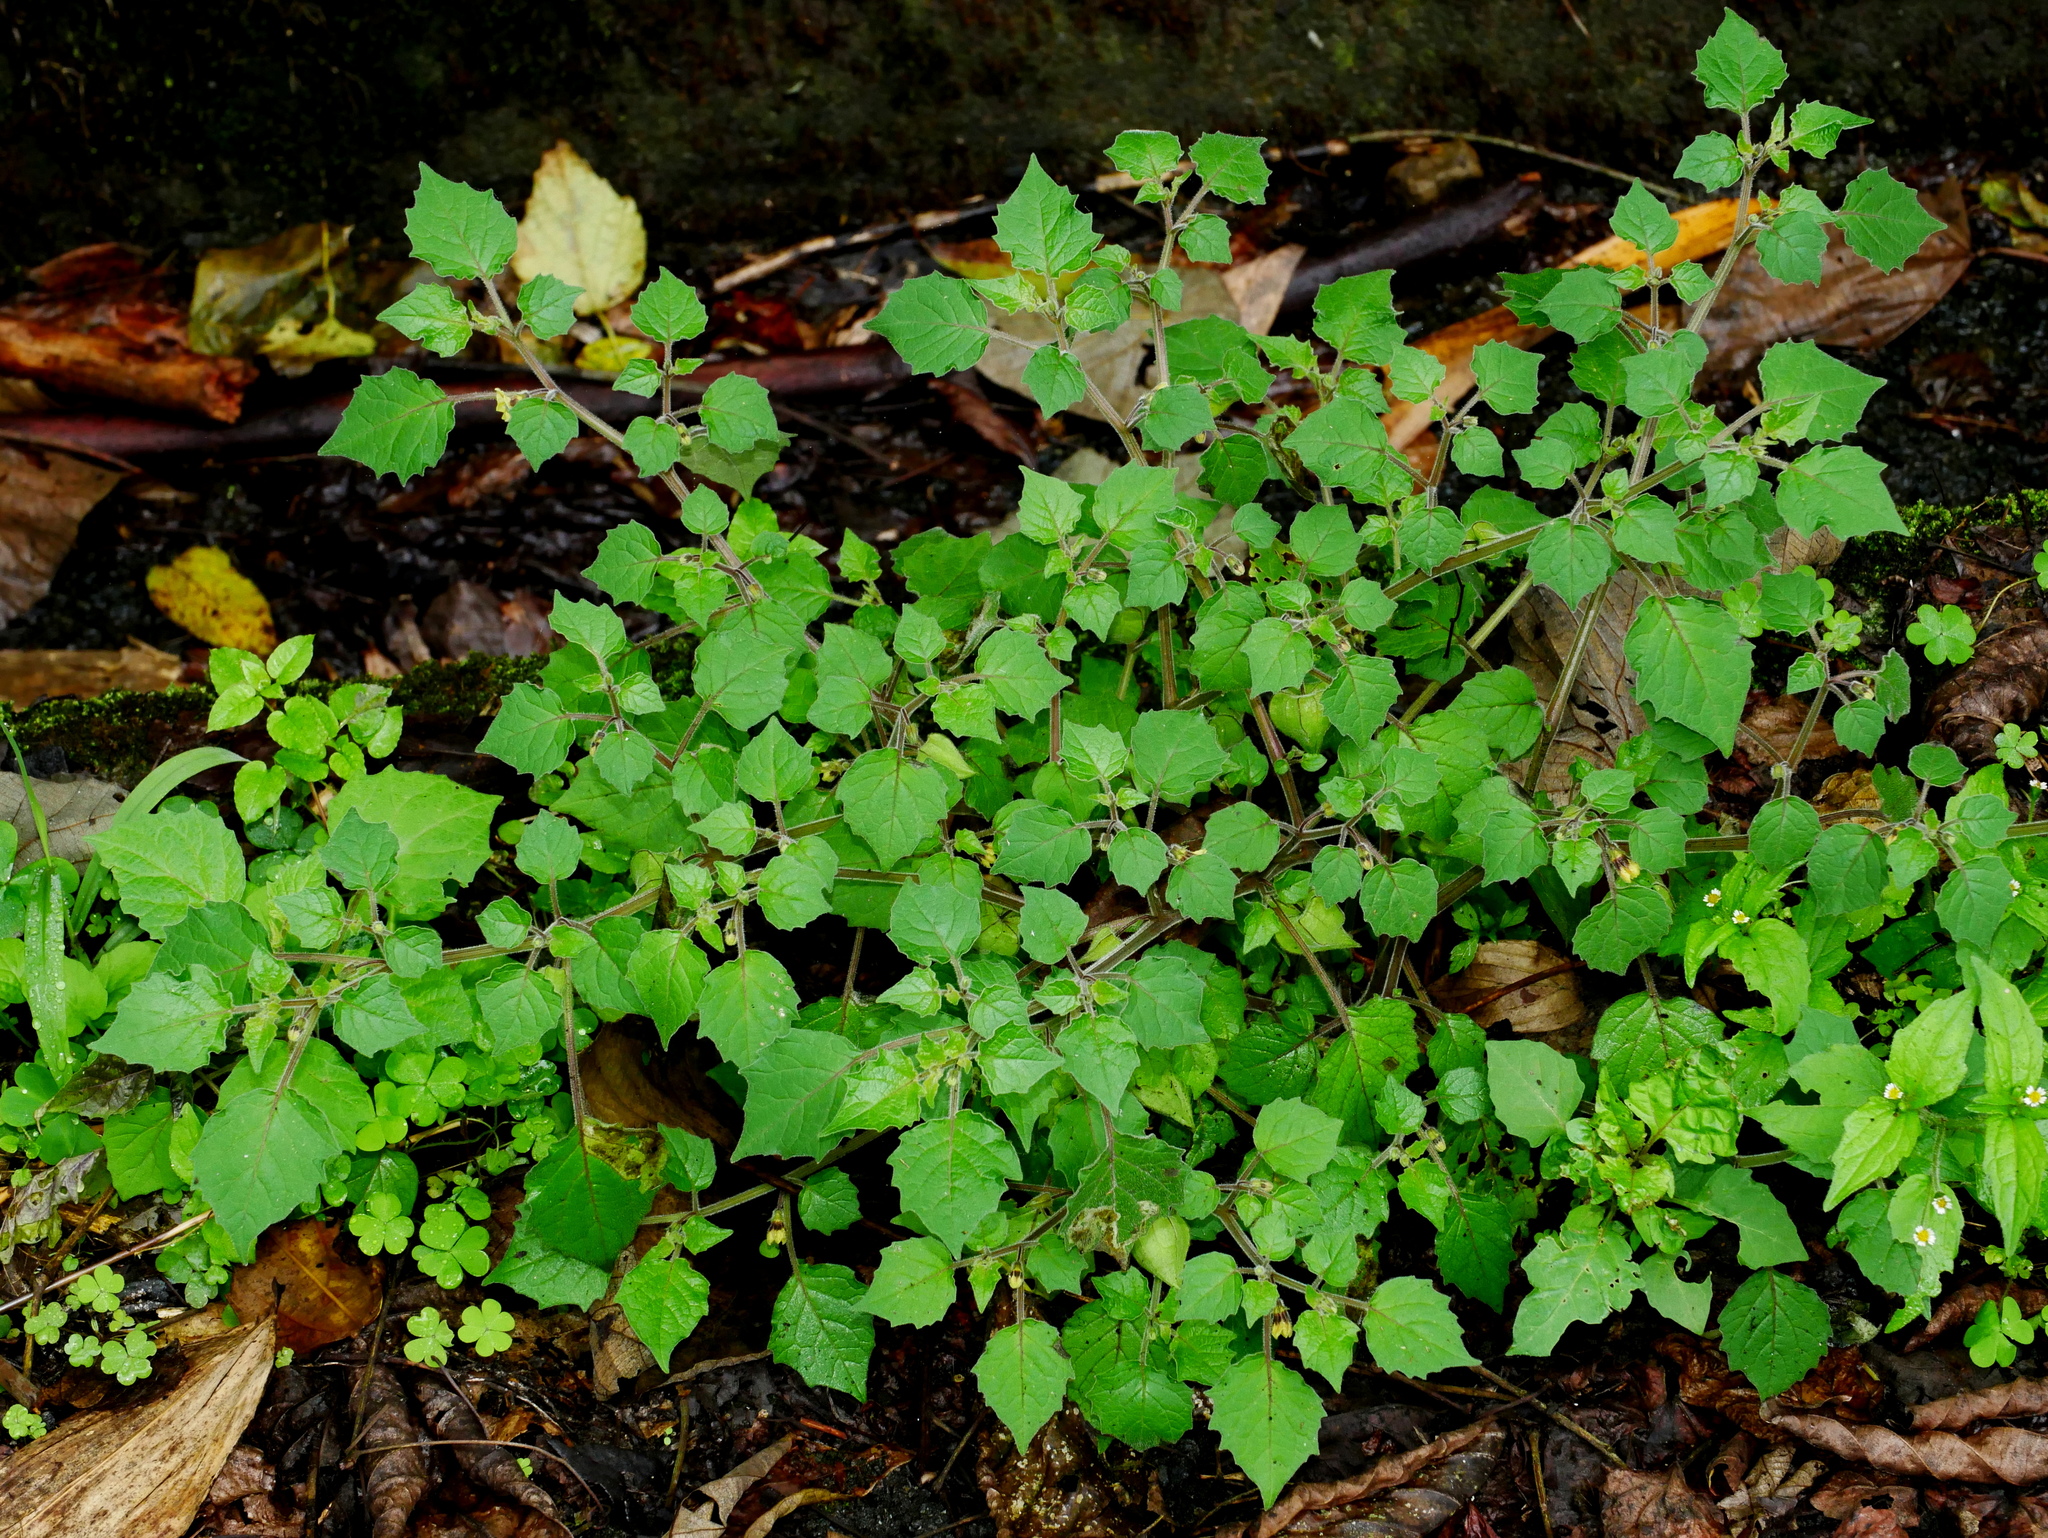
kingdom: Plantae
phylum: Tracheophyta
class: Magnoliopsida
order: Solanales
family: Solanaceae
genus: Physalis
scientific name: Physalis pubescens
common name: Downy ground-cherry
